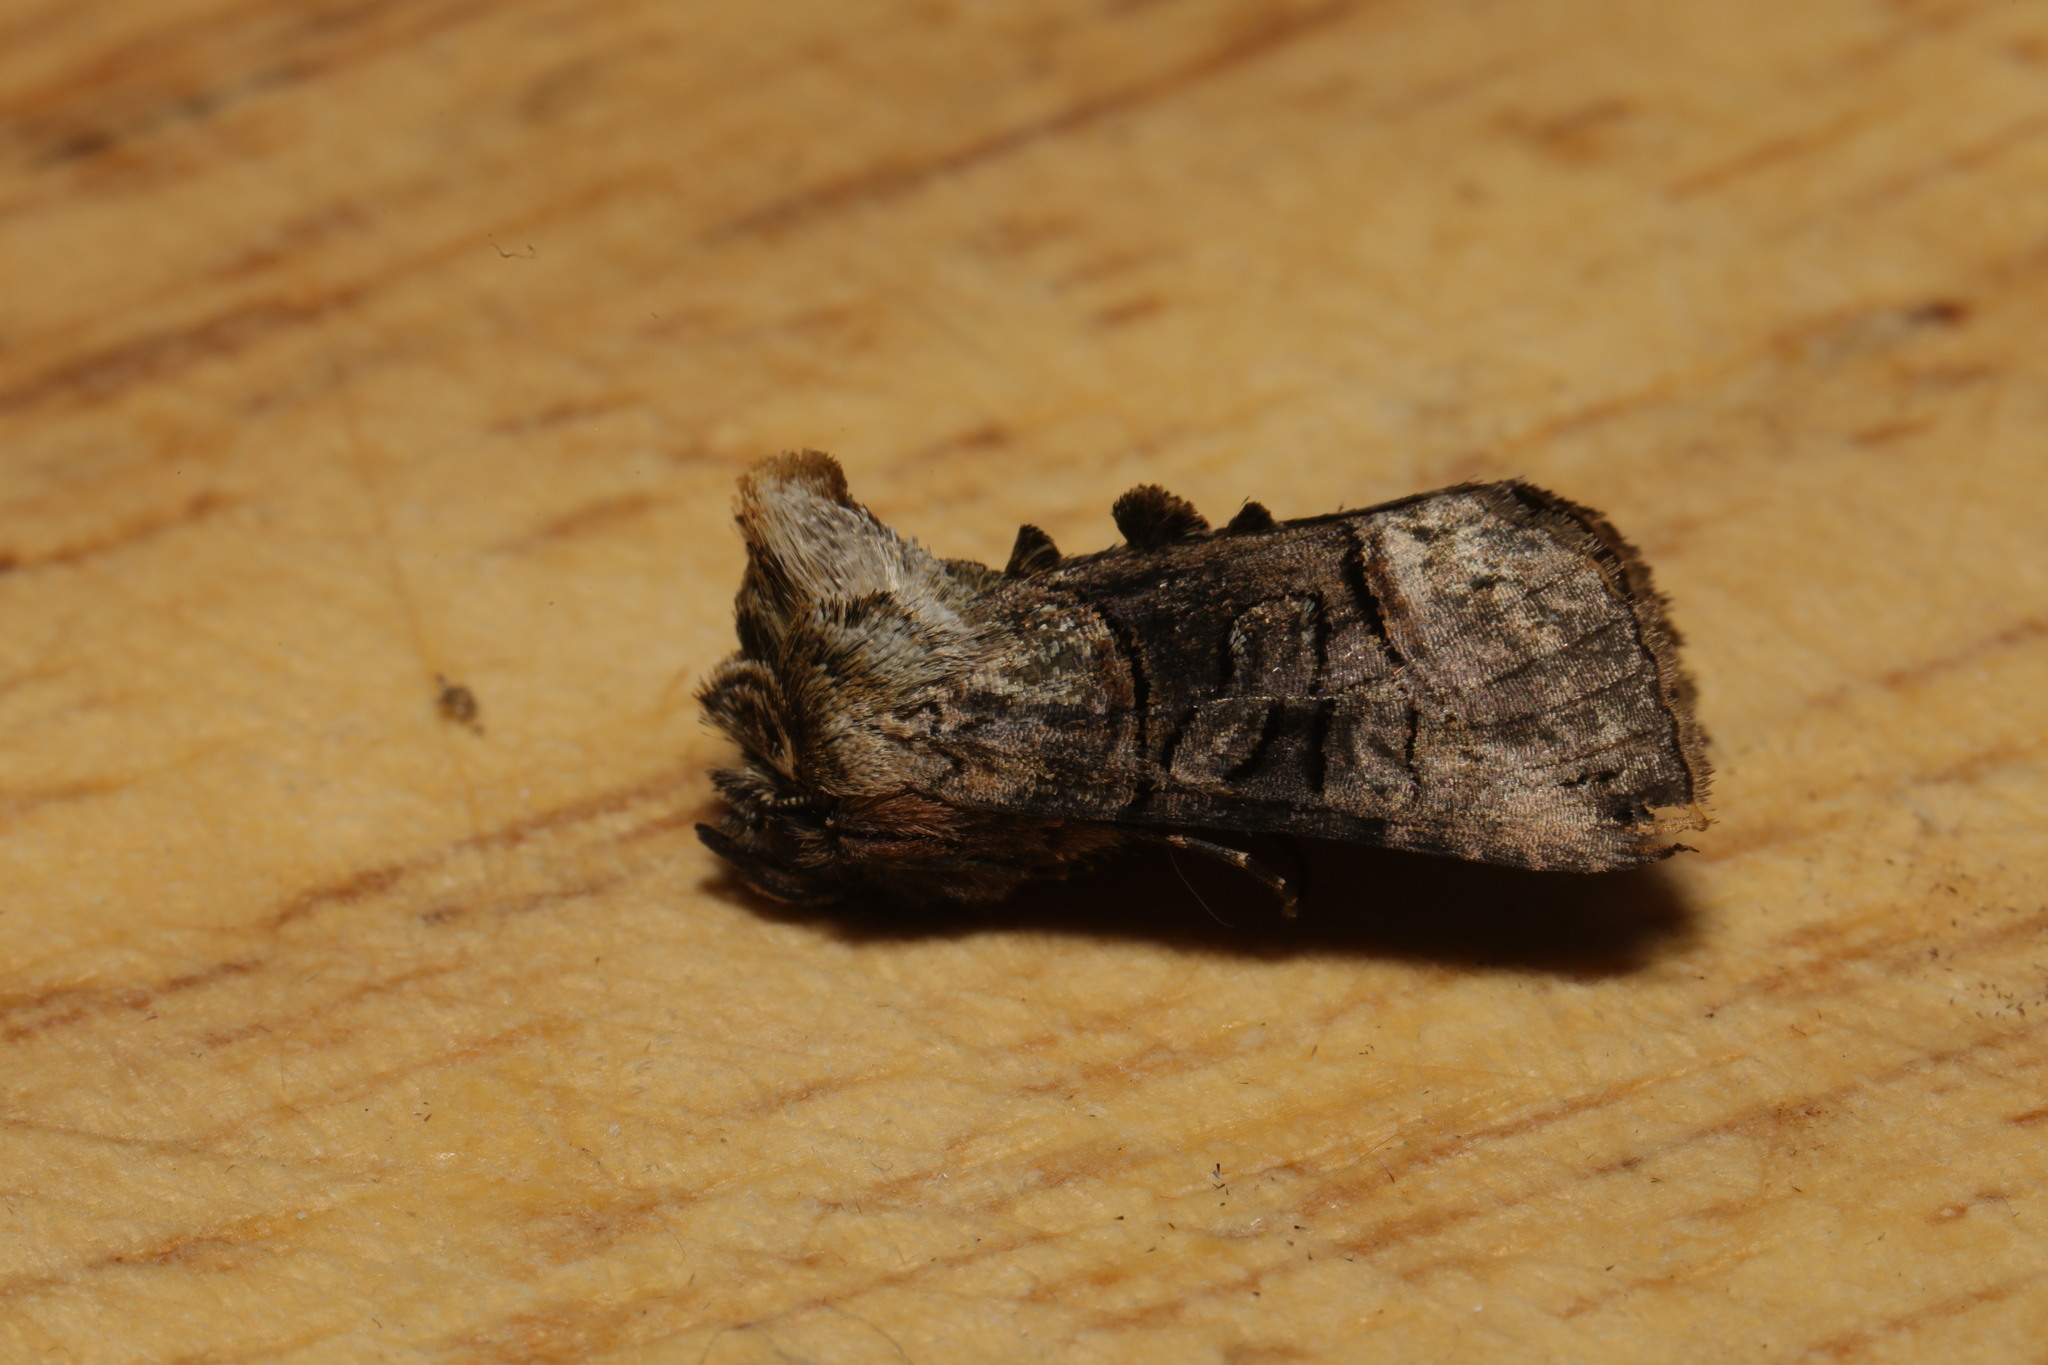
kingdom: Animalia
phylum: Arthropoda
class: Insecta
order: Lepidoptera
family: Noctuidae
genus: Abrostola
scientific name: Abrostola tripartita
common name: Spectacle
